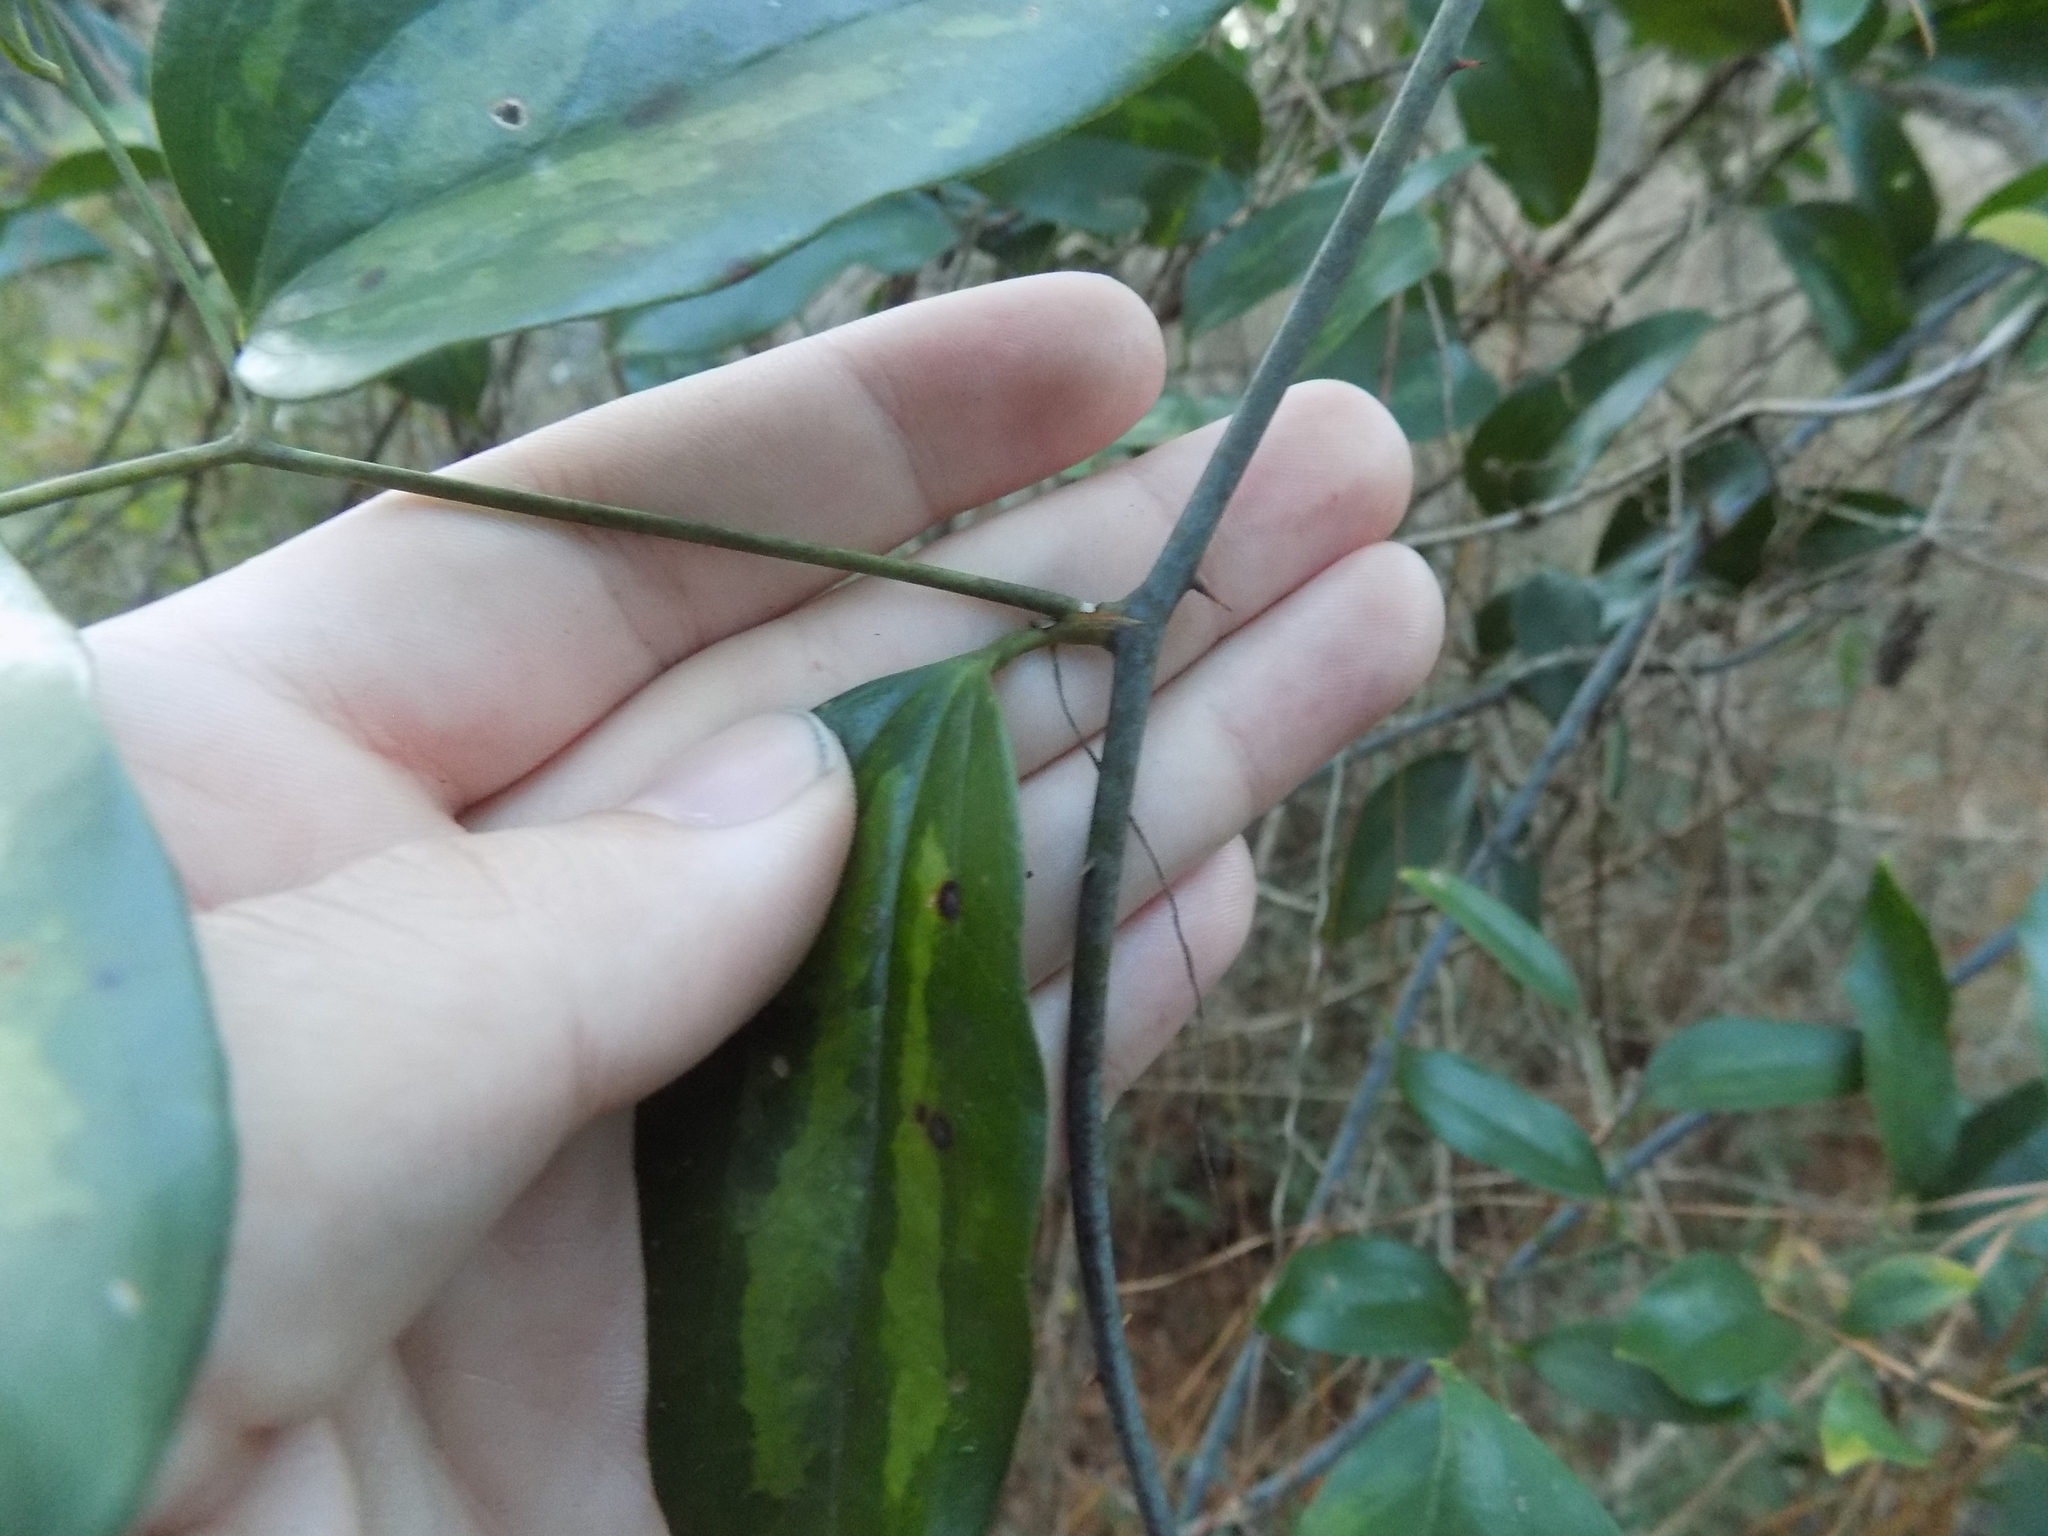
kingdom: Plantae
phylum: Tracheophyta
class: Liliopsida
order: Liliales
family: Smilacaceae
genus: Smilax
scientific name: Smilax maritima
